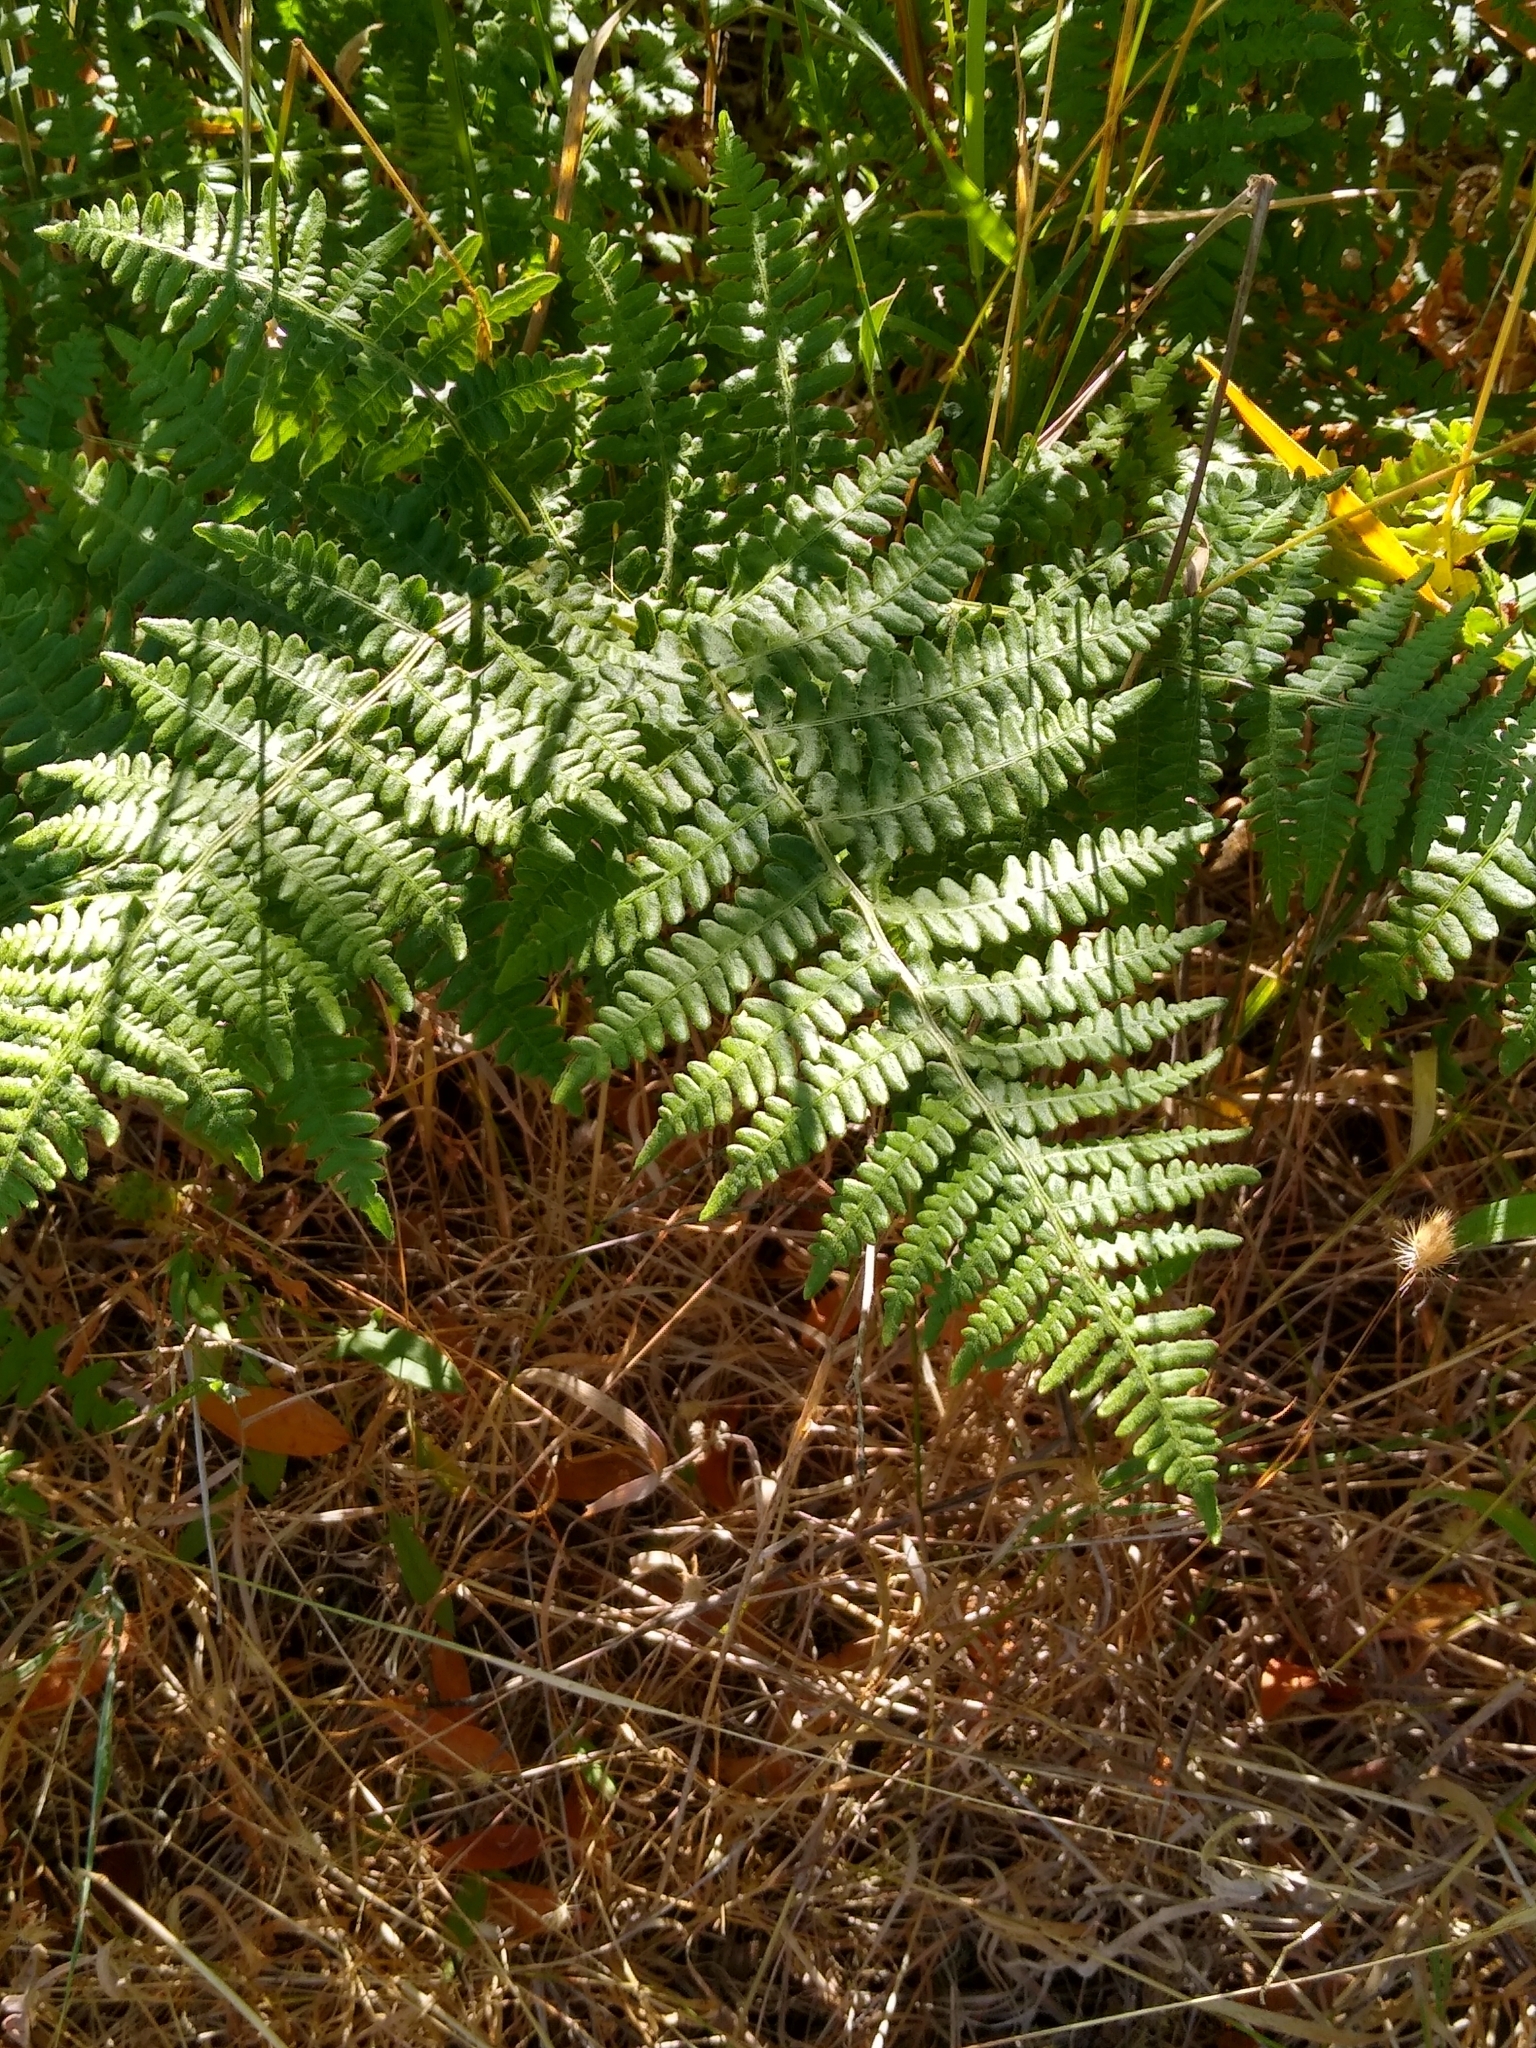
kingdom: Plantae
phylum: Tracheophyta
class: Polypodiopsida
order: Polypodiales
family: Dennstaedtiaceae
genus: Pteridium
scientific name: Pteridium aquilinum
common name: Bracken
